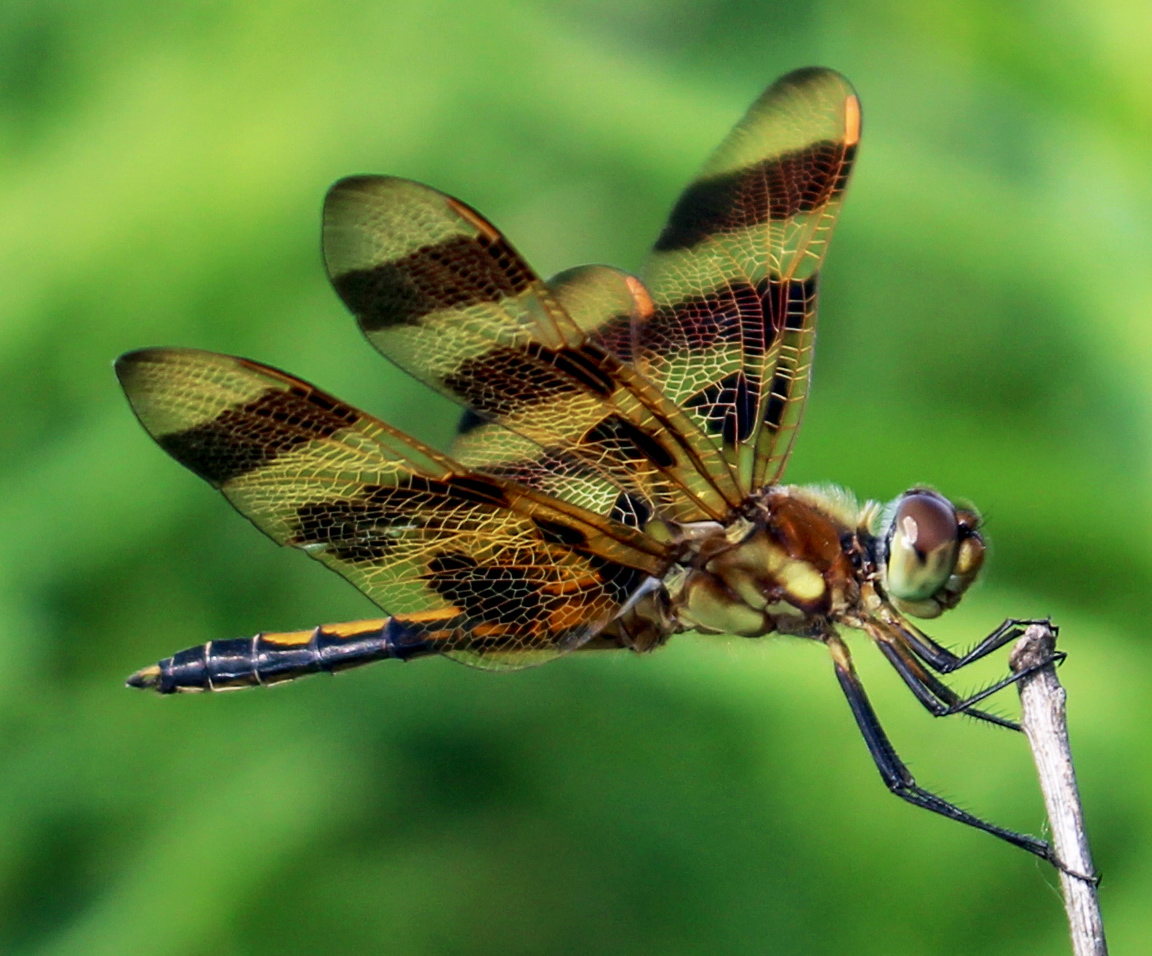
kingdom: Animalia
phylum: Arthropoda
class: Insecta
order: Odonata
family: Libellulidae
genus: Celithemis
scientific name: Celithemis eponina
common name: Halloween pennant
